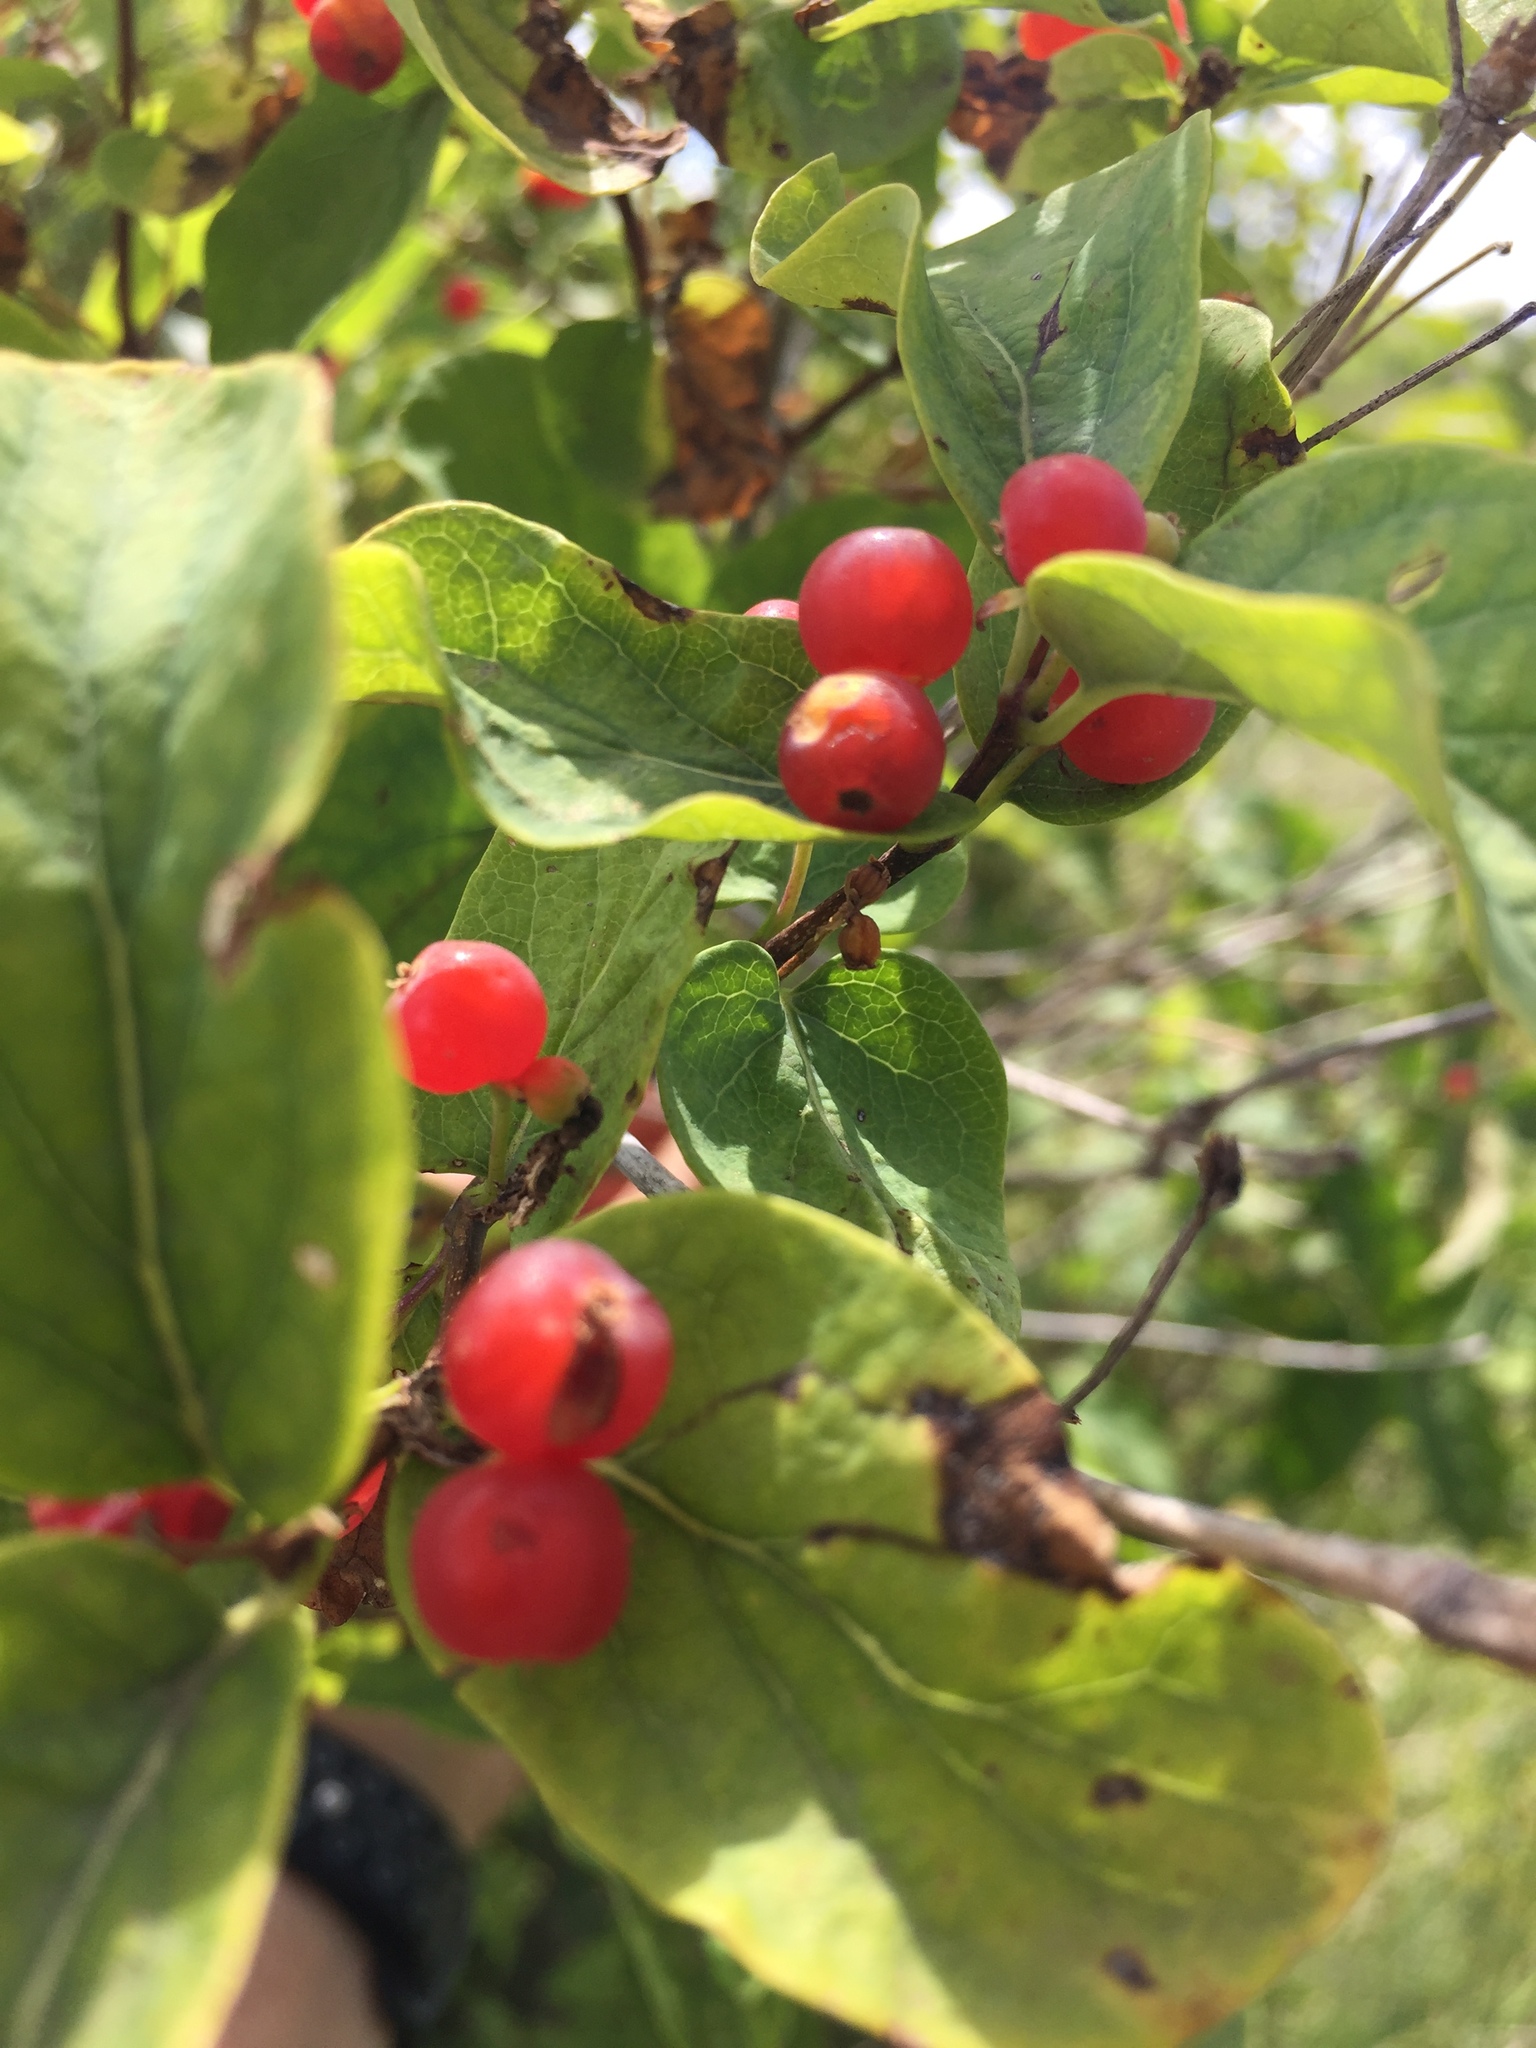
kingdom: Plantae
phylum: Tracheophyta
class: Magnoliopsida
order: Dipsacales
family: Caprifoliaceae
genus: Lonicera
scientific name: Lonicera tatarica
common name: Tatarian honeysuckle
